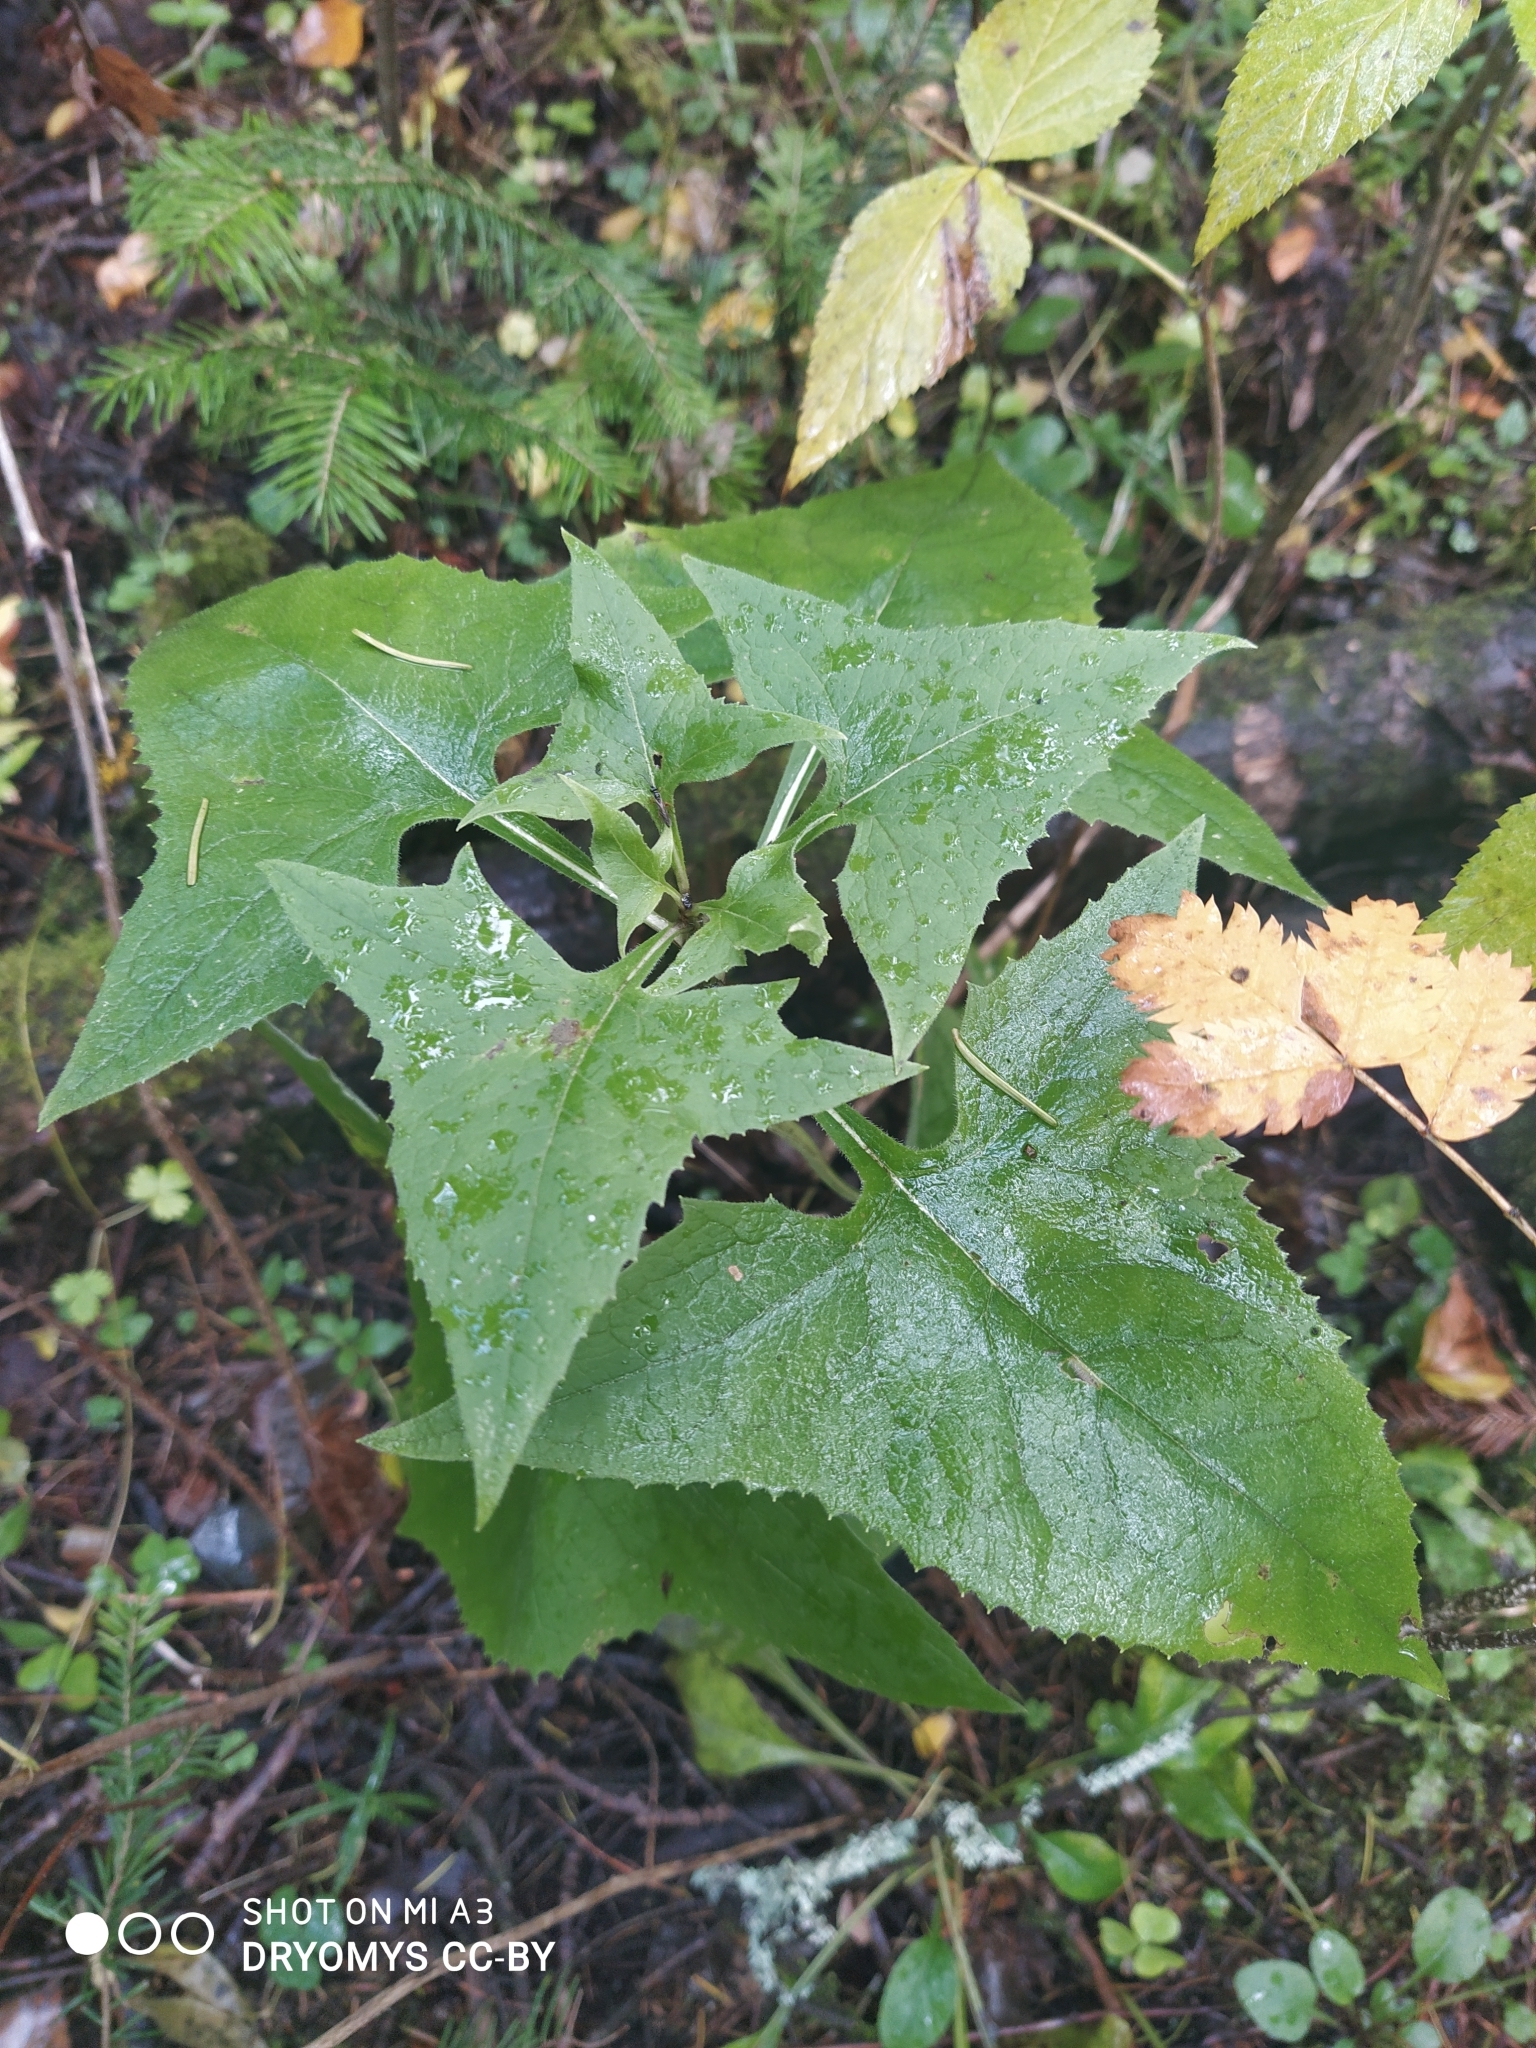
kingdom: Plantae
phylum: Tracheophyta
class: Magnoliopsida
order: Asterales
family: Asteraceae
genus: Parasenecio
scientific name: Parasenecio hastatus
